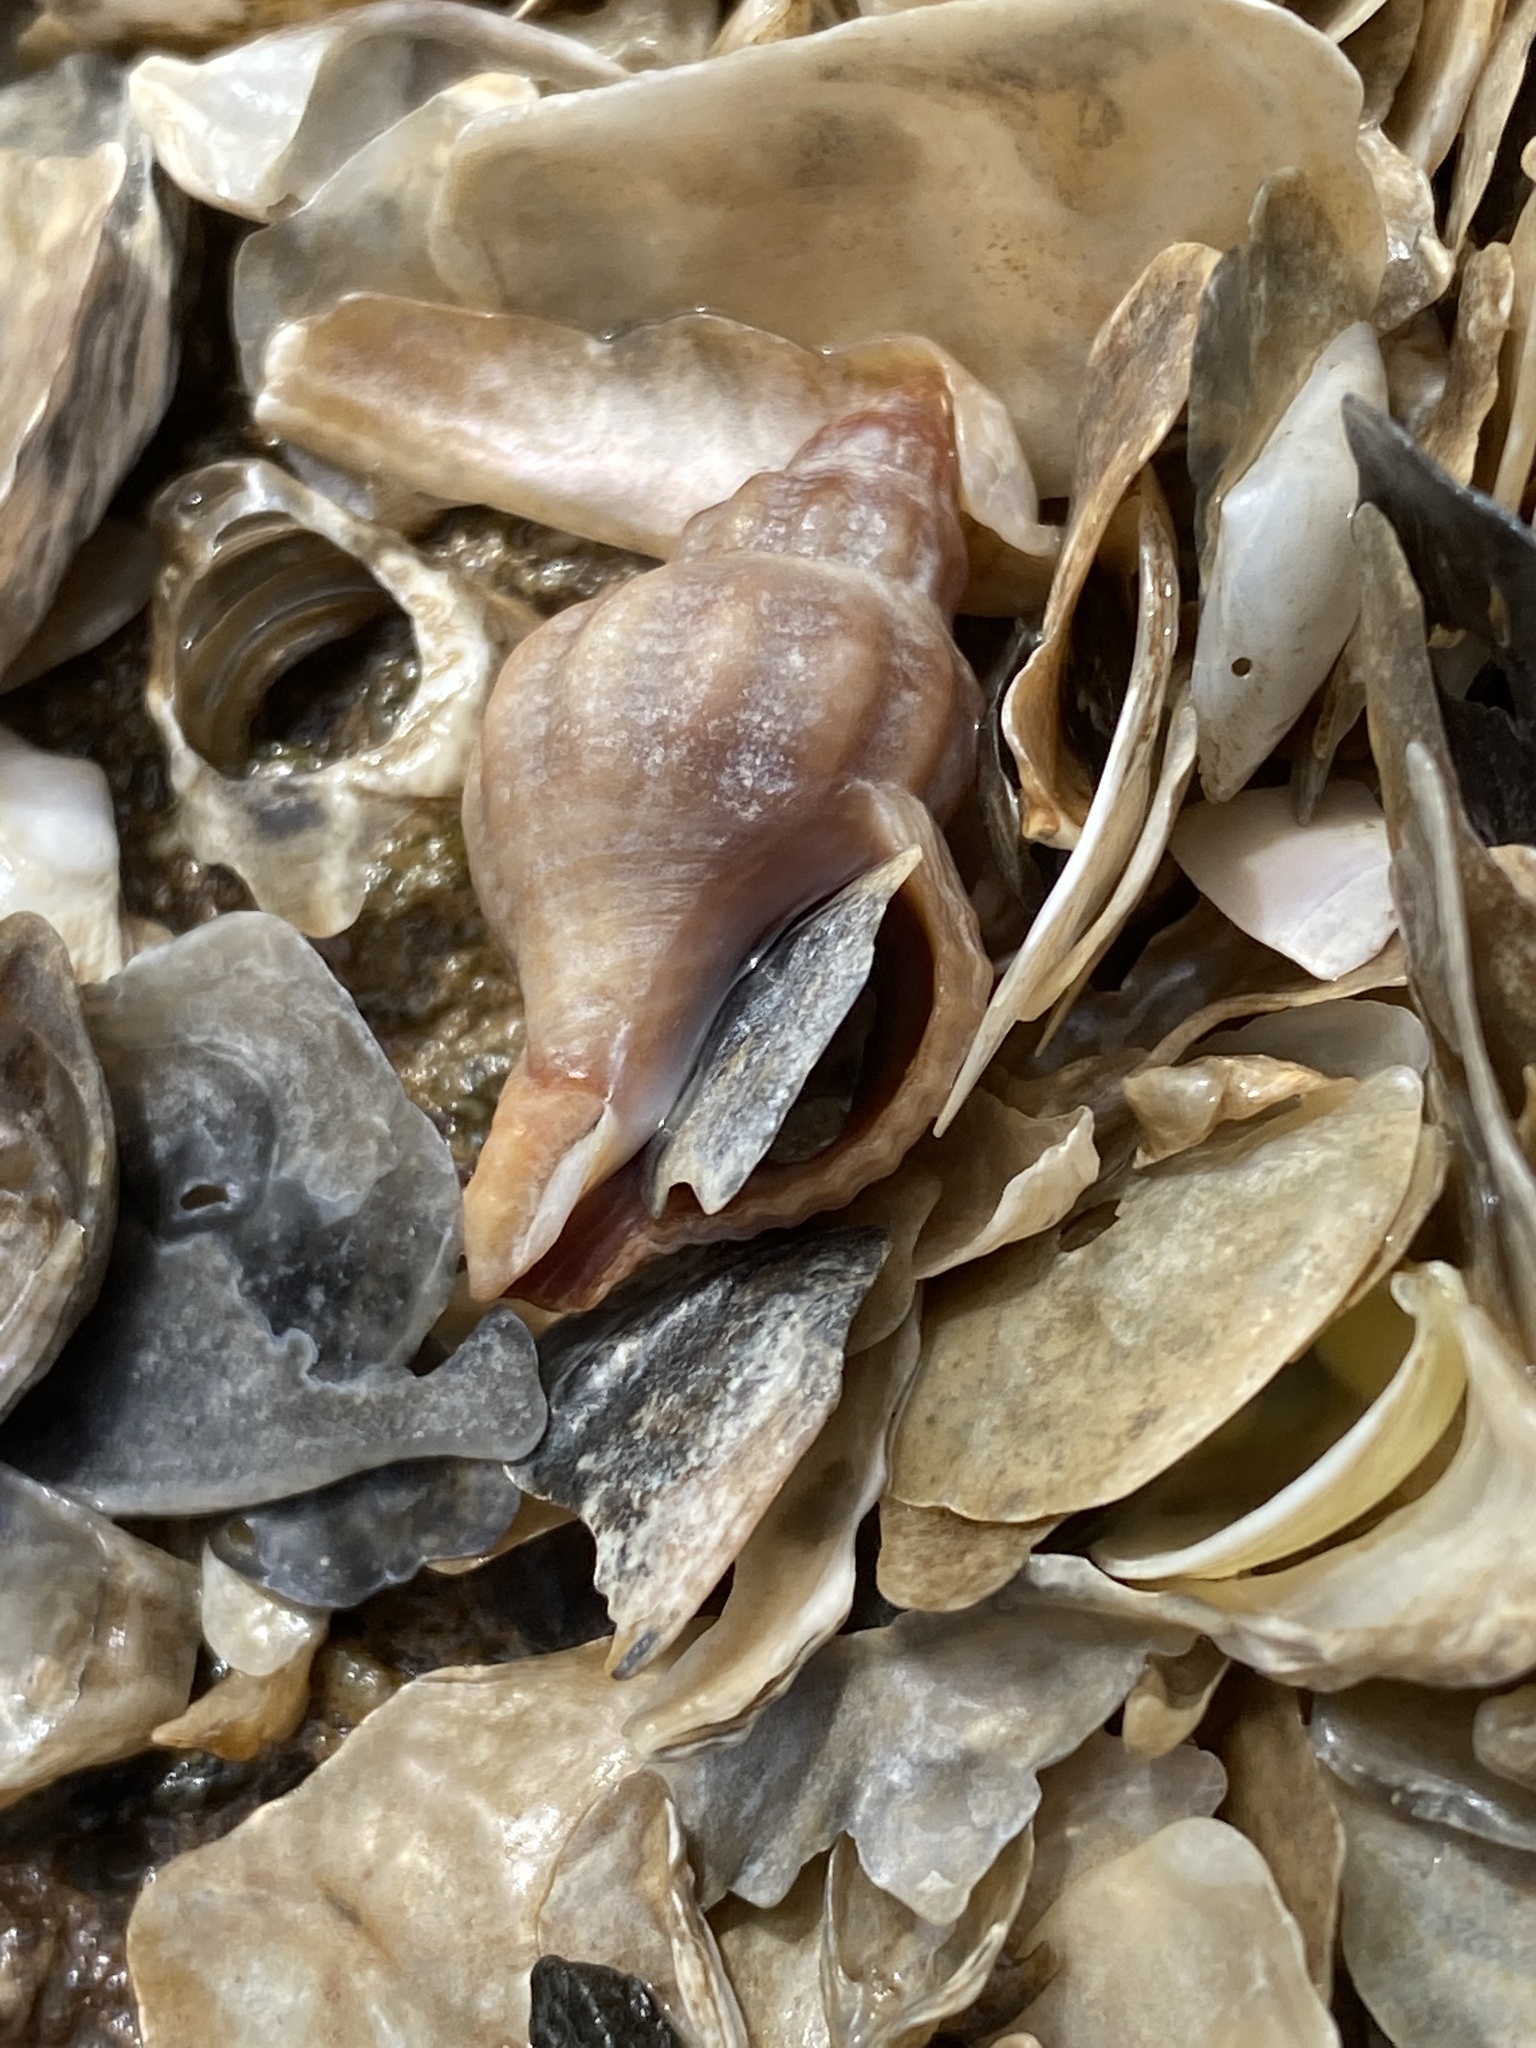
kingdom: Animalia
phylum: Mollusca
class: Gastropoda
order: Neogastropoda
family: Muricidae
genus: Urosalpinx
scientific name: Urosalpinx cinerea
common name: American sting winkle
